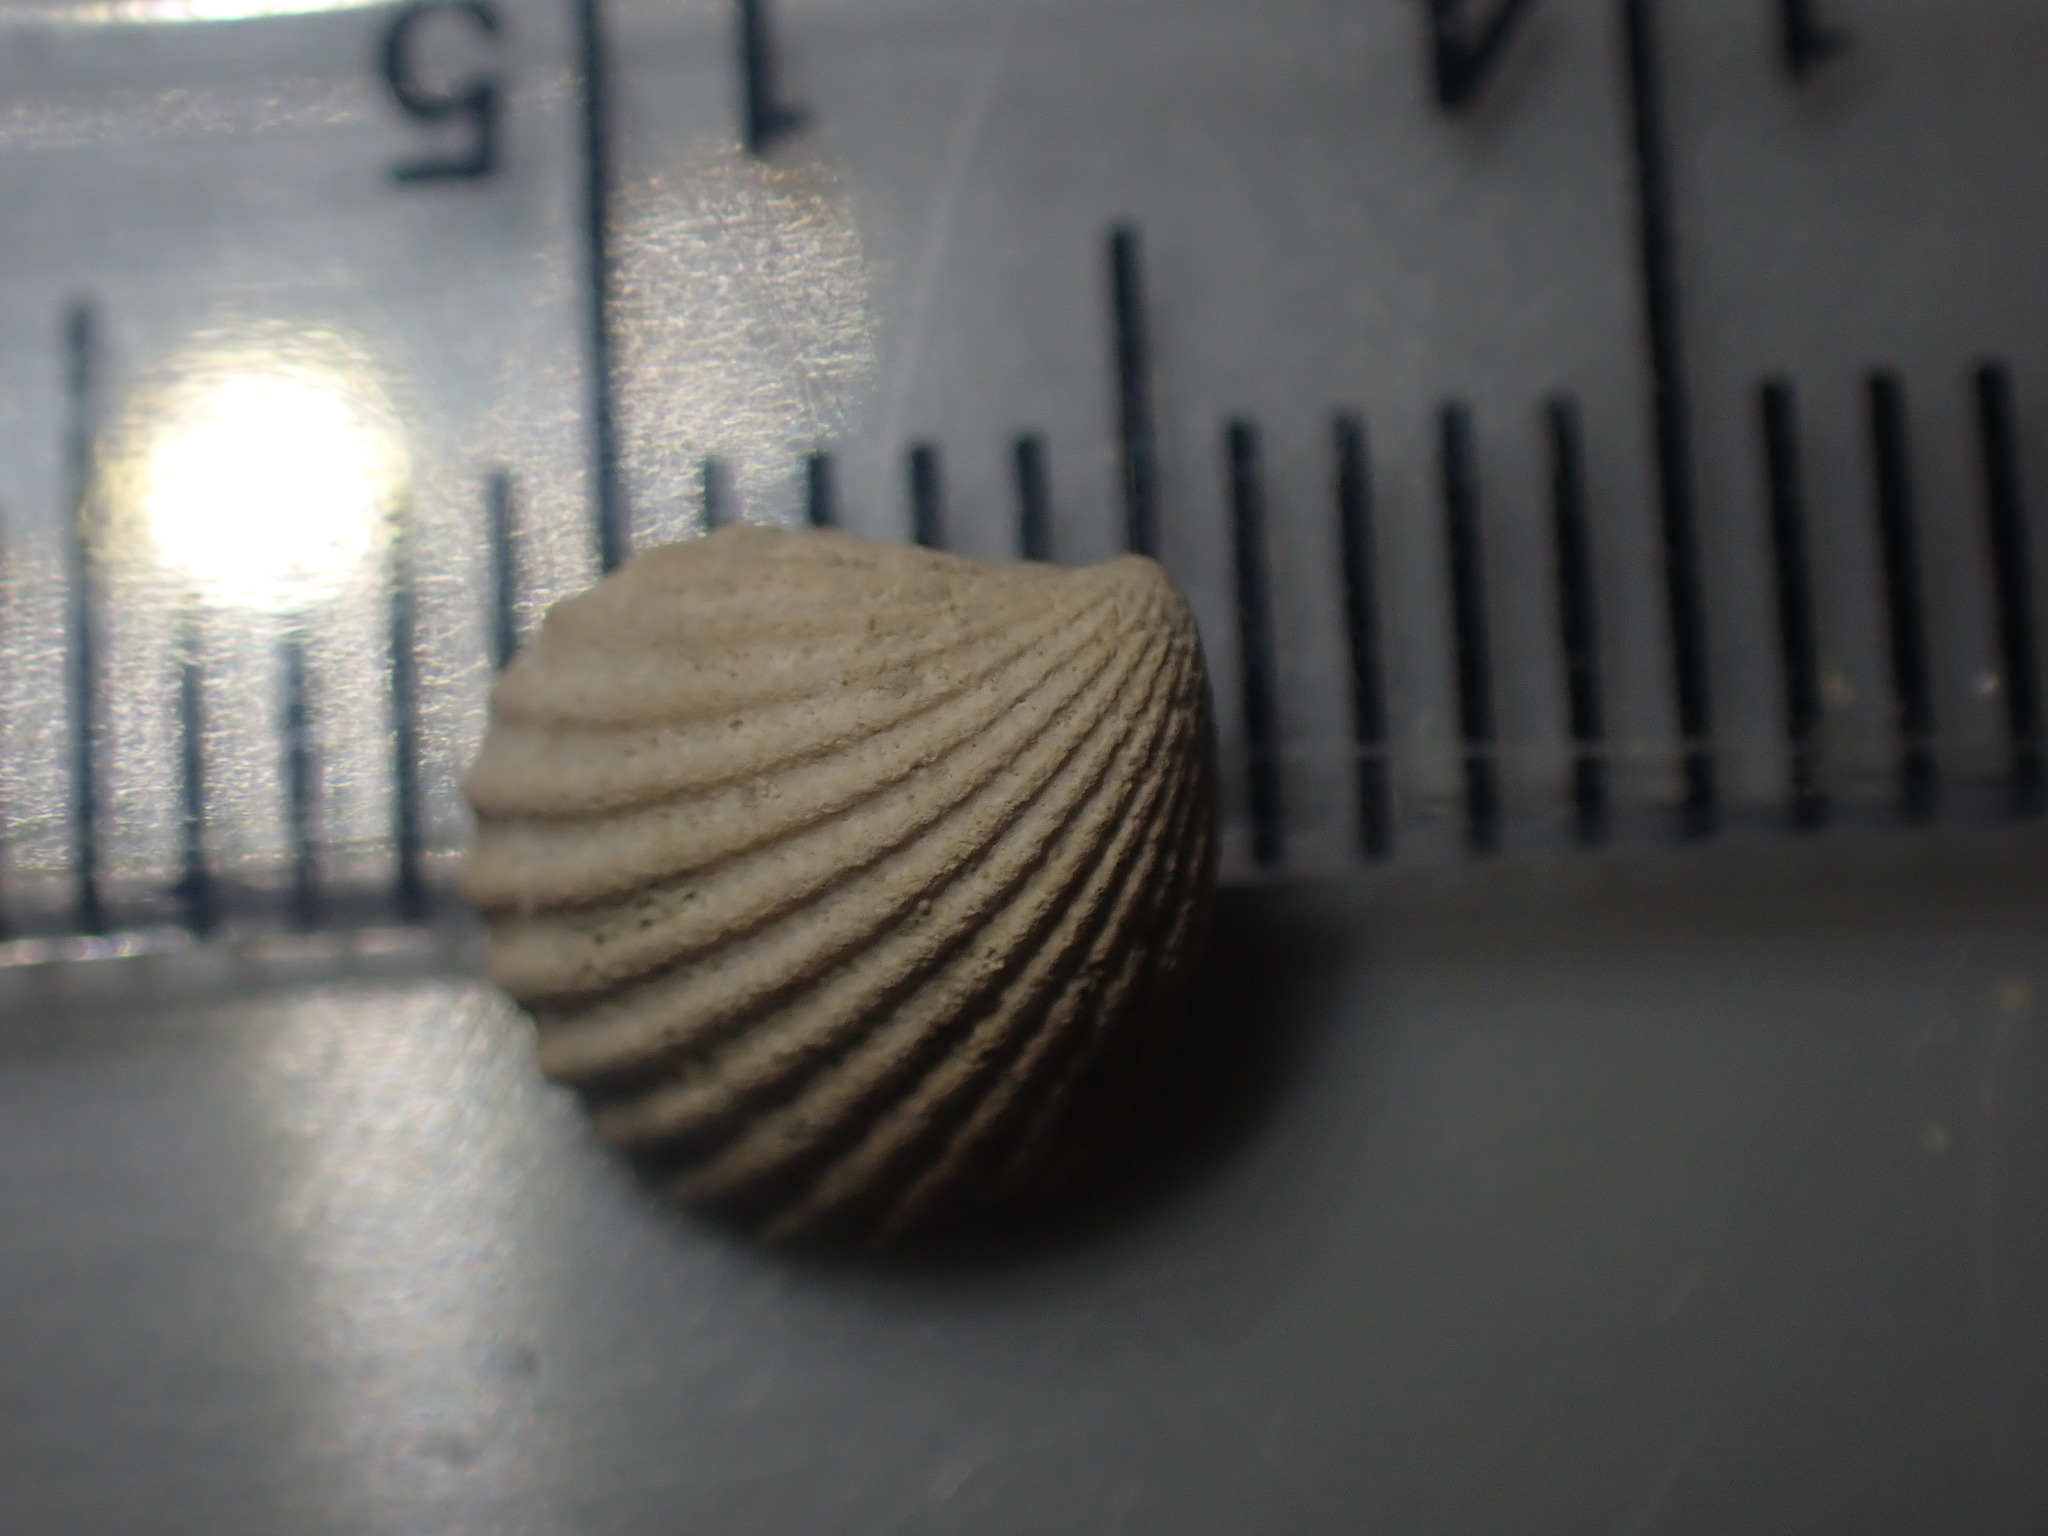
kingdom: Animalia
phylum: Mollusca
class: Bivalvia
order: Carditida
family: Carditidae
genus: Pleuromeris
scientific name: Pleuromeris zelandica
